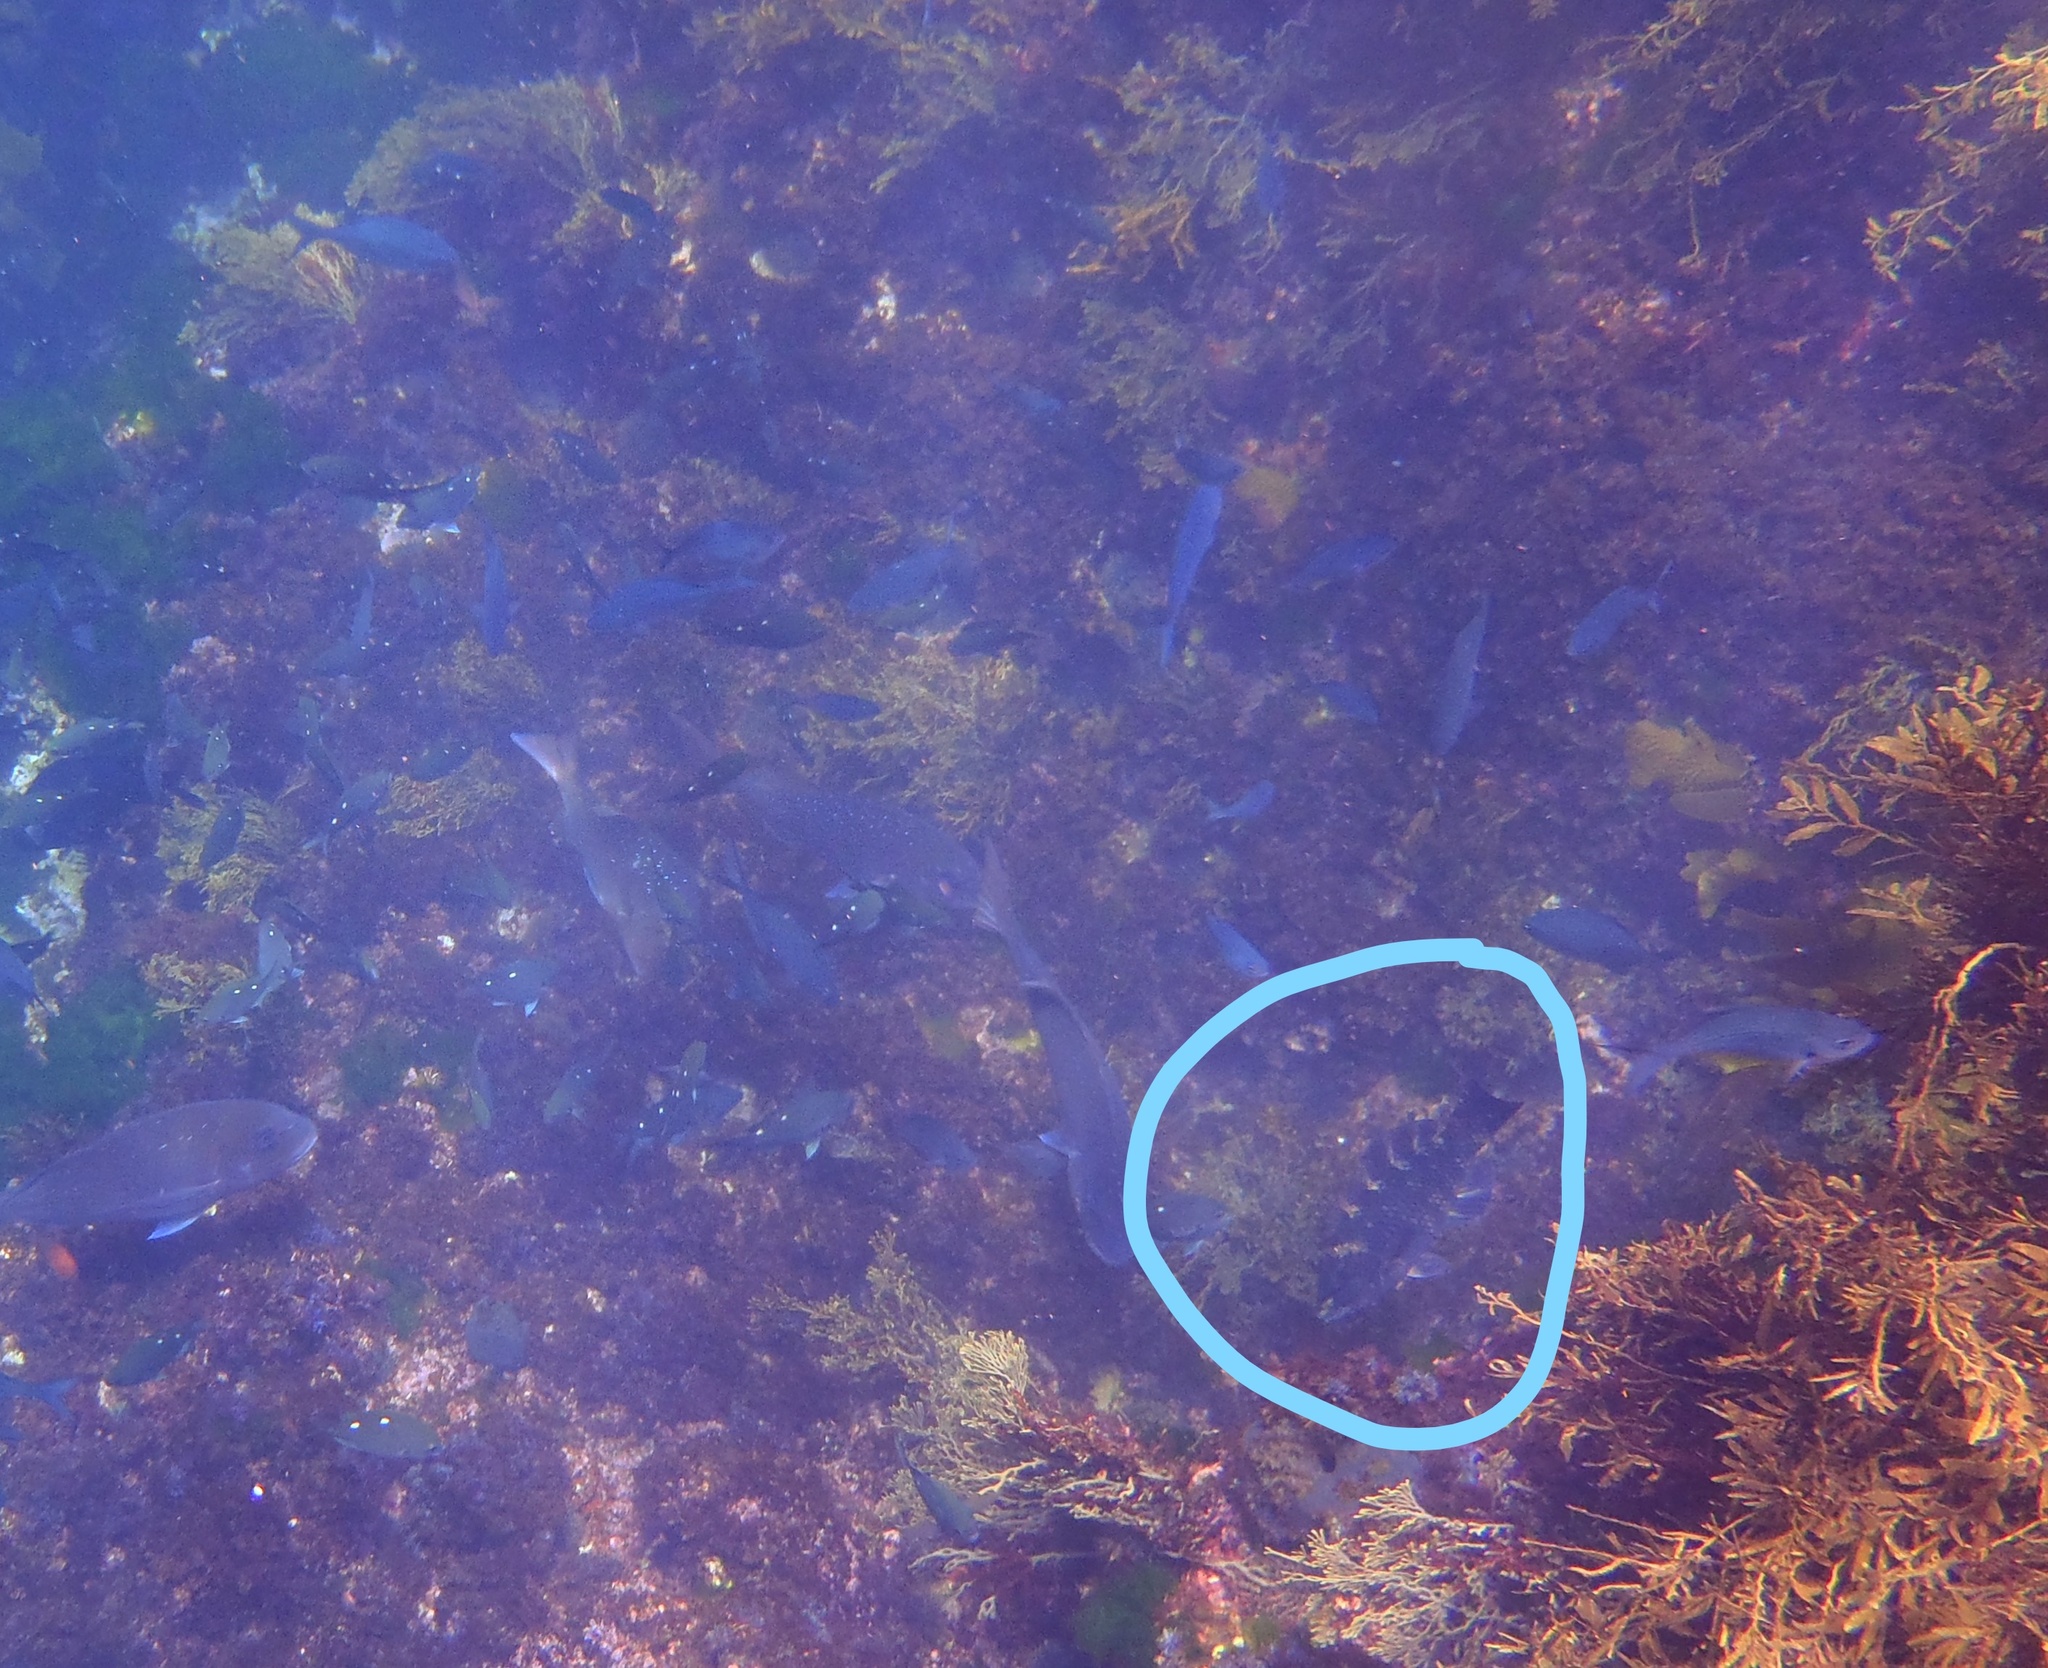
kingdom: Animalia
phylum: Chordata
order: Perciformes
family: Labridae
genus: Notolabrus
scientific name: Notolabrus fucicola
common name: Banded parrotfish
